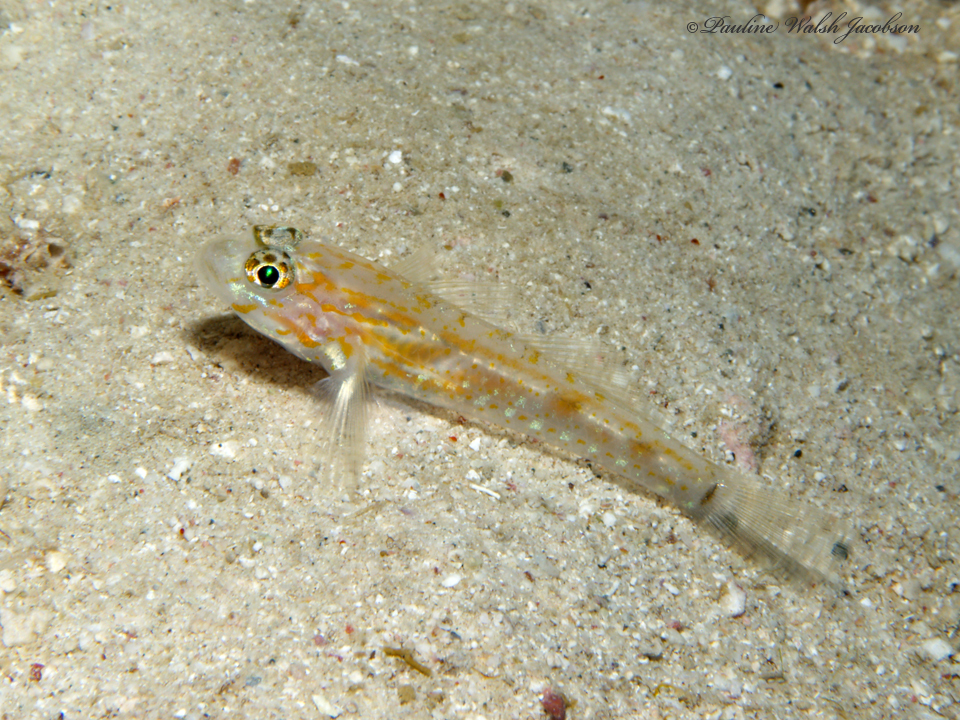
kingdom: Animalia
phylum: Chordata
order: Perciformes
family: Gobiidae
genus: Coryphopterus
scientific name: Coryphopterus eidolon
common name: Pallid goby
